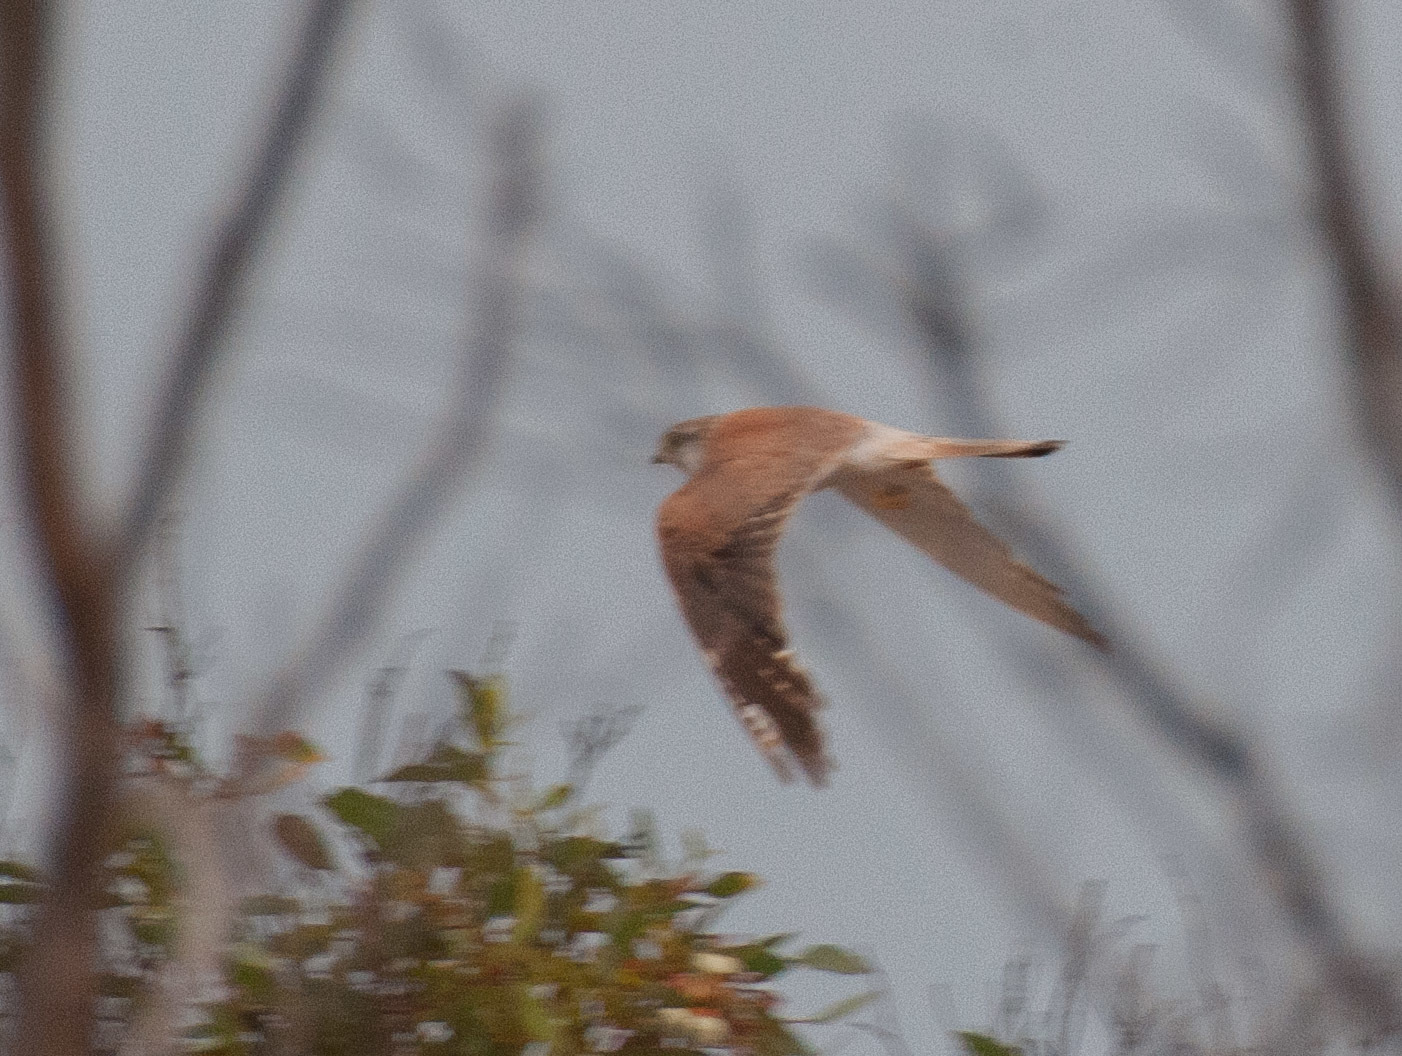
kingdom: Animalia
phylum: Chordata
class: Aves
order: Falconiformes
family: Falconidae
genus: Falco
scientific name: Falco cenchroides
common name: Nankeen kestrel
